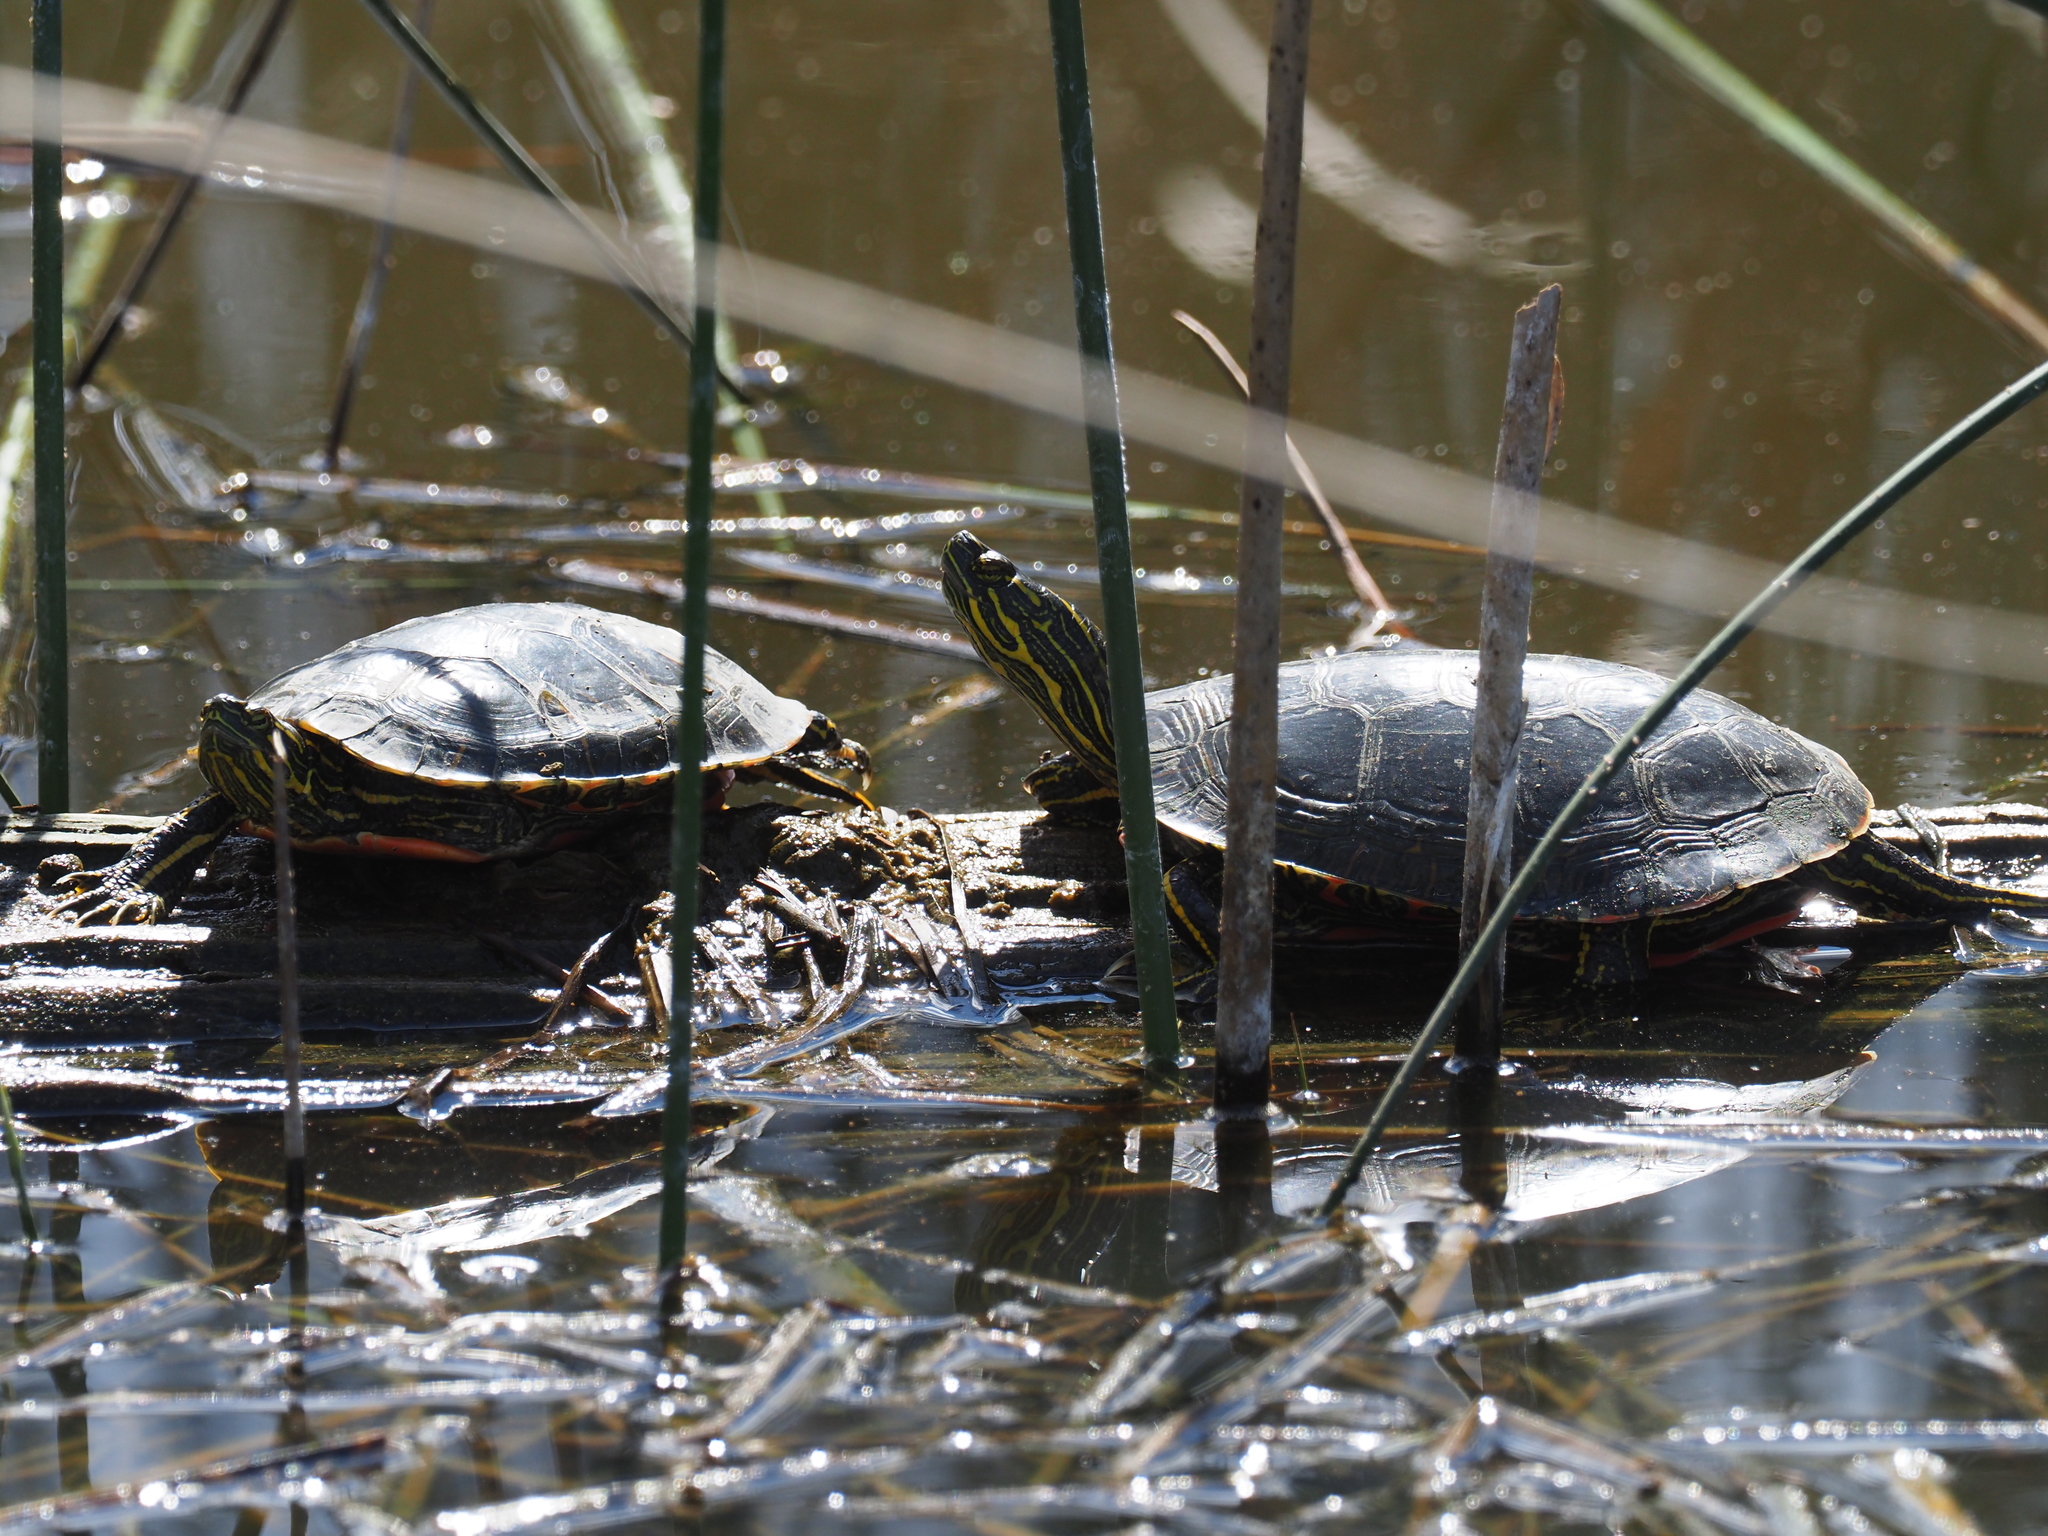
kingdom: Animalia
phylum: Chordata
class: Testudines
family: Emydidae
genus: Chrysemys
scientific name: Chrysemys picta
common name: Painted turtle
